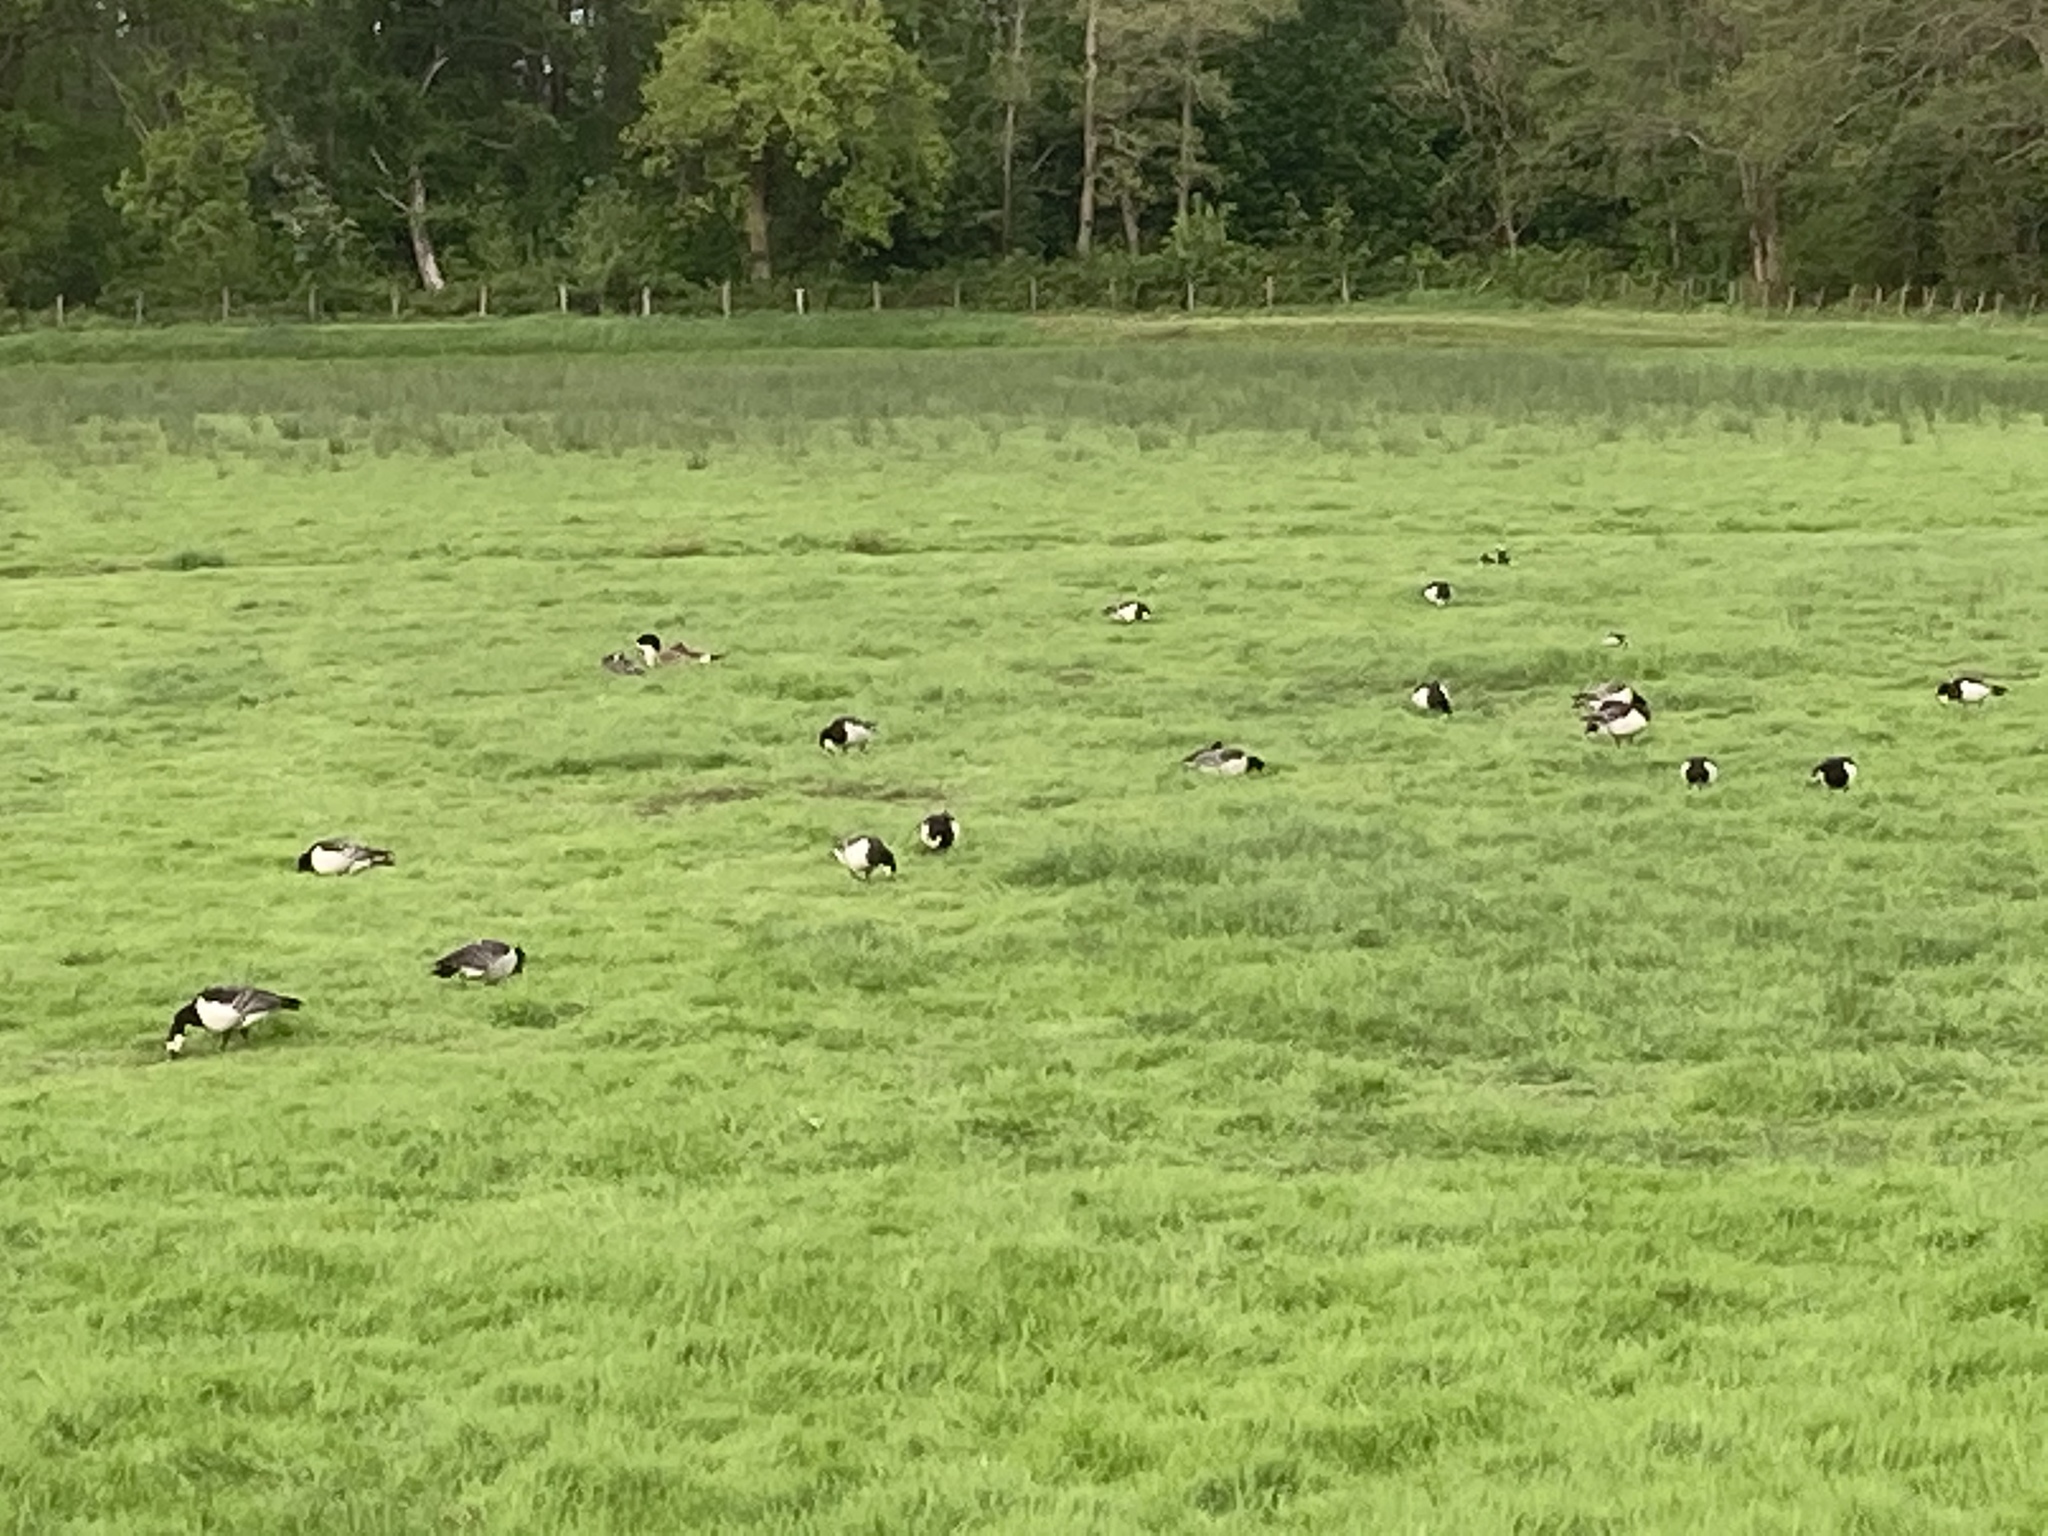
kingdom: Animalia
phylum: Chordata
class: Aves
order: Anseriformes
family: Anatidae
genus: Branta
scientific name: Branta leucopsis
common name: Barnacle goose
